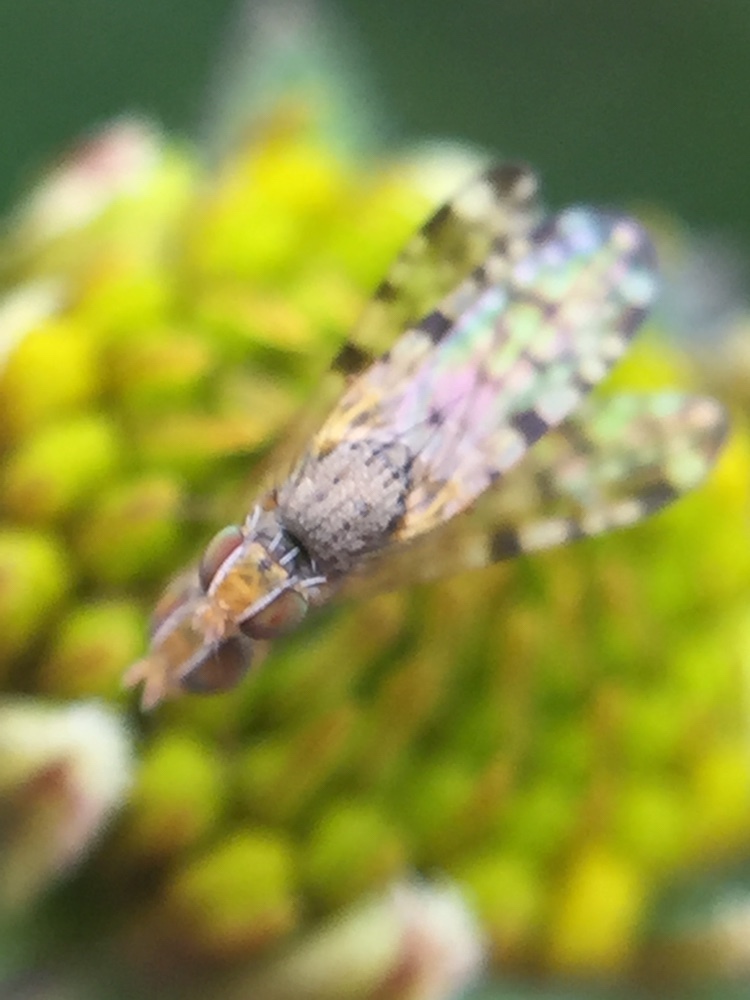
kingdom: Animalia
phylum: Arthropoda
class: Insecta
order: Diptera
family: Tephritidae
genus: Dioxyna
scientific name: Dioxyna sororcula
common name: Fruit fly
